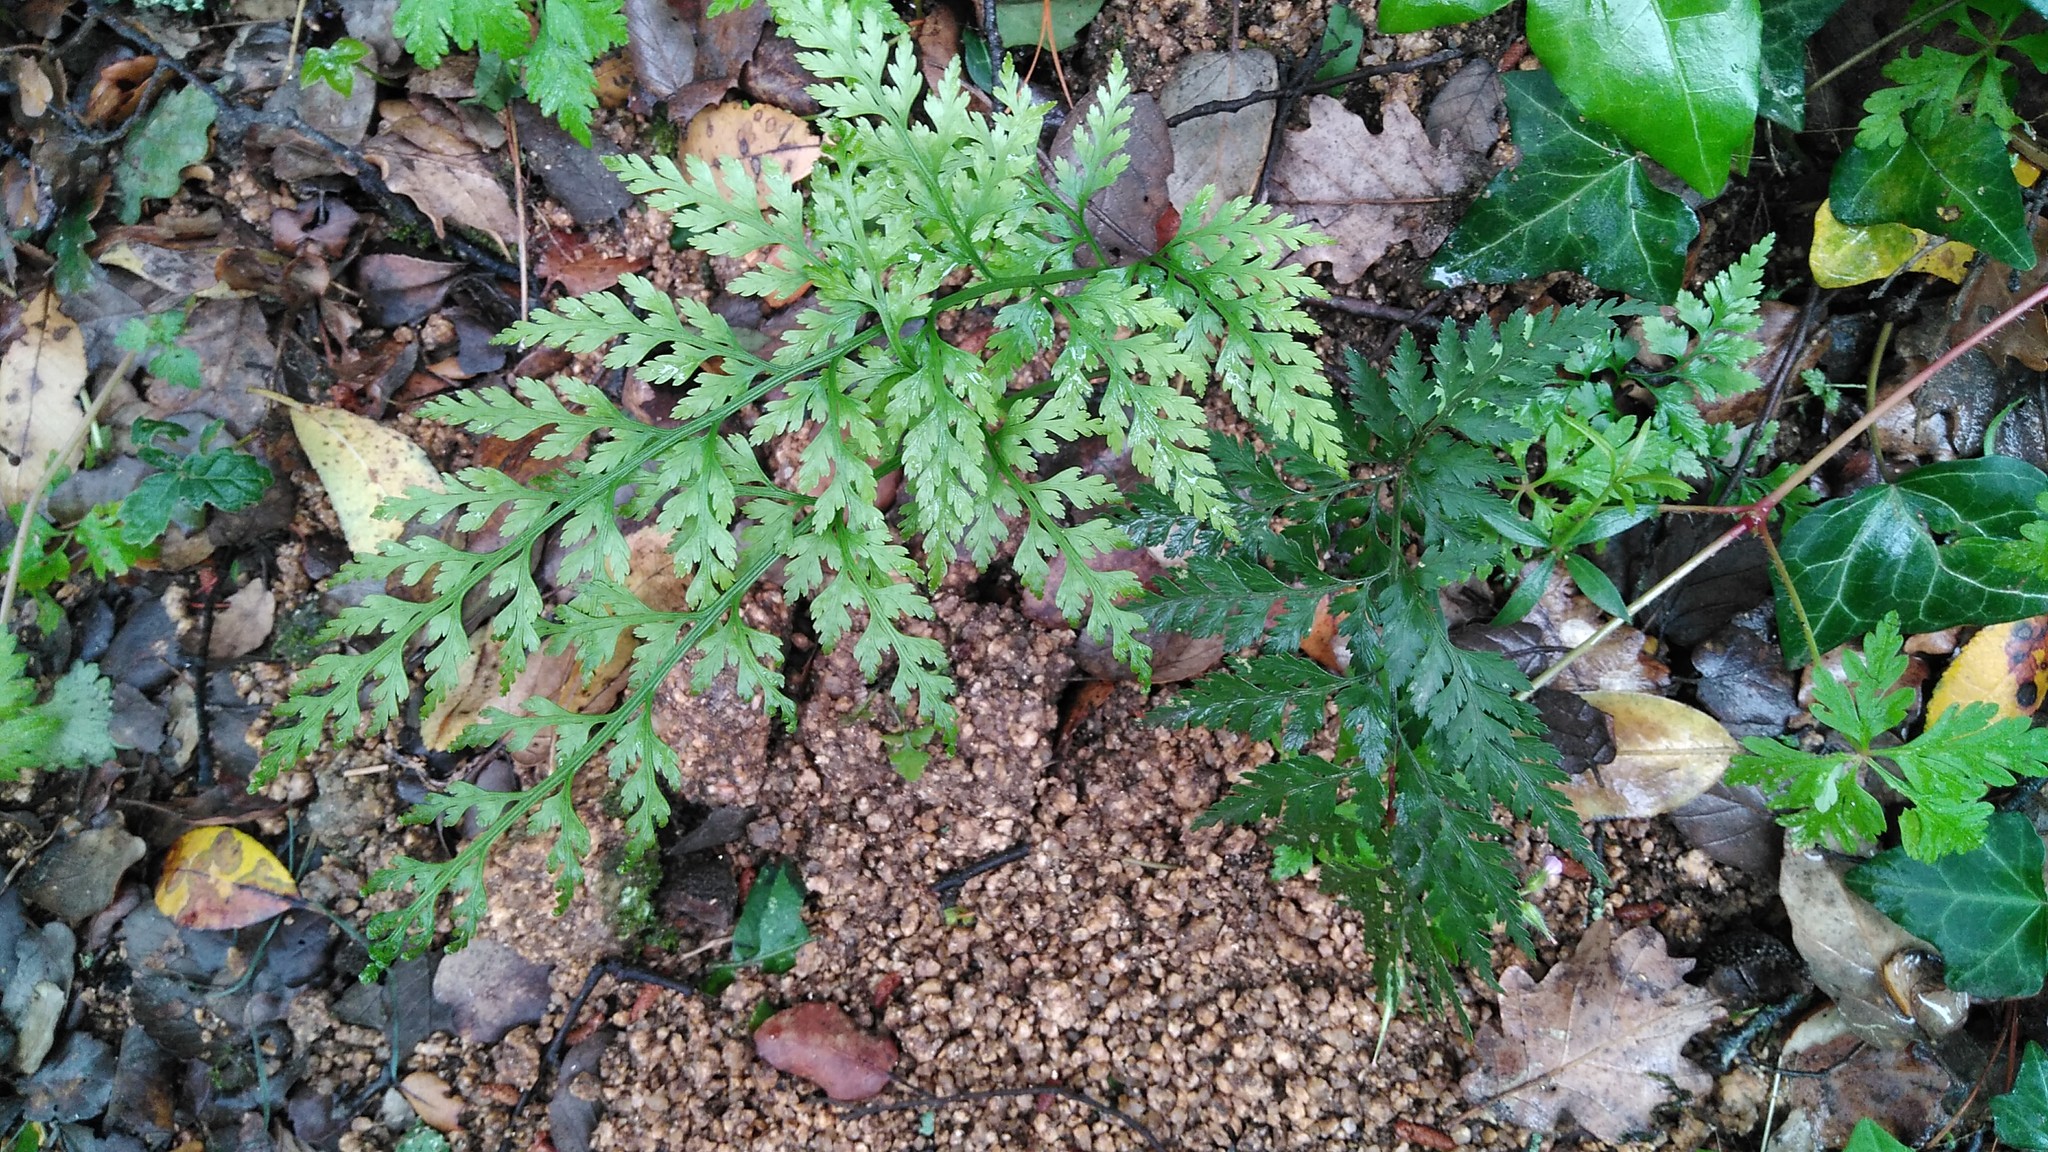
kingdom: Plantae
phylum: Tracheophyta
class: Polypodiopsida
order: Polypodiales
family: Aspleniaceae
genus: Asplenium
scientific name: Asplenium onopteris
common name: Irish spleenwort
